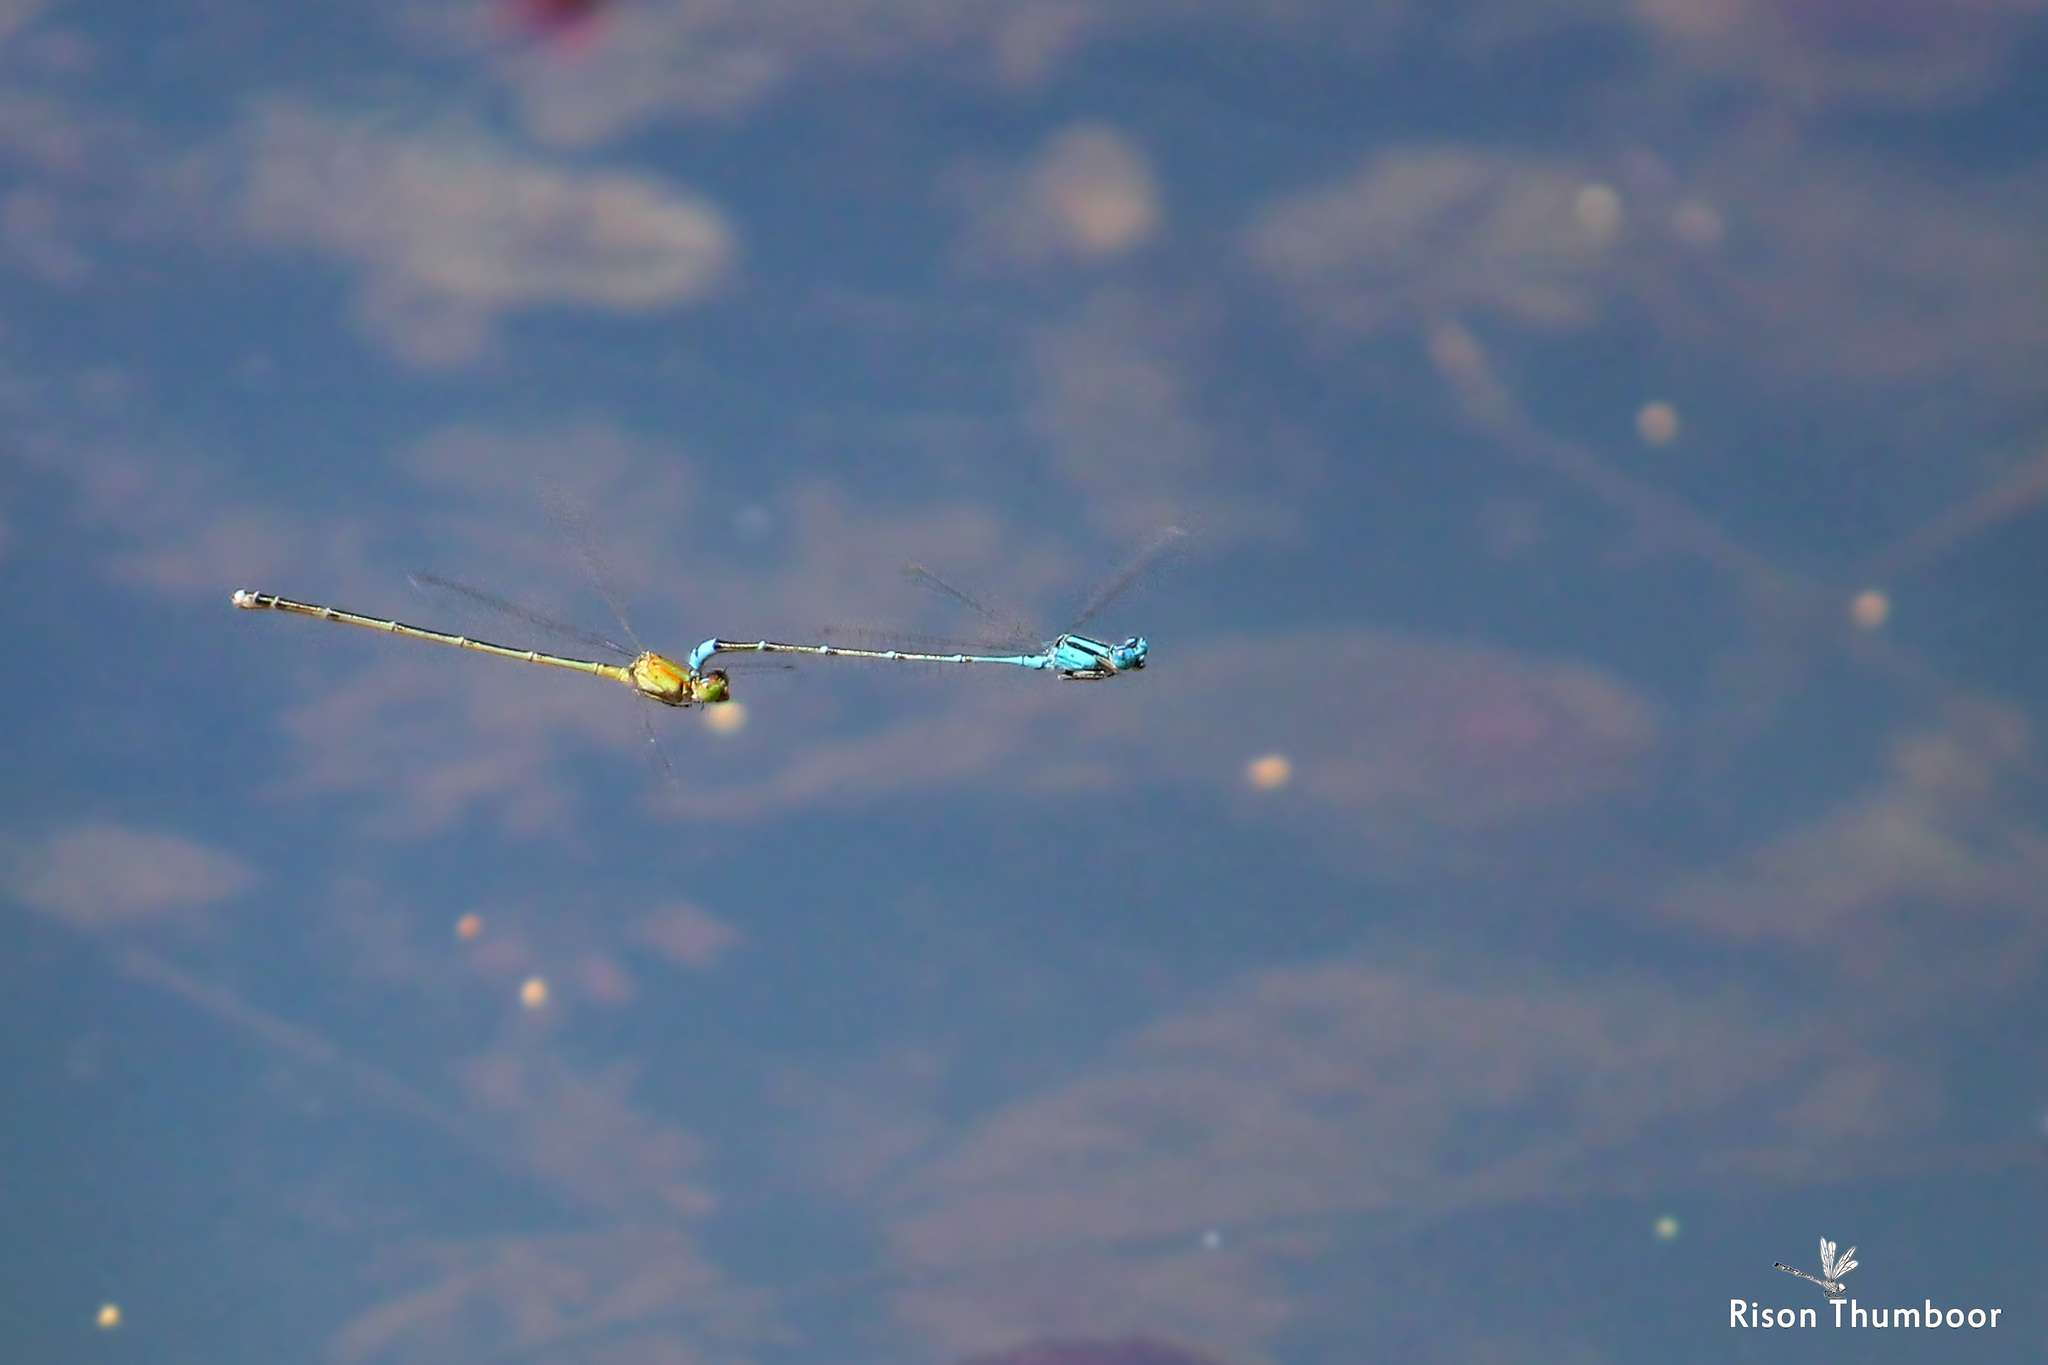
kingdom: Animalia
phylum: Arthropoda
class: Insecta
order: Odonata
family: Coenagrionidae
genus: Pseudagrion
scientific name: Pseudagrion microcephalum
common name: Blue riverdamsel
